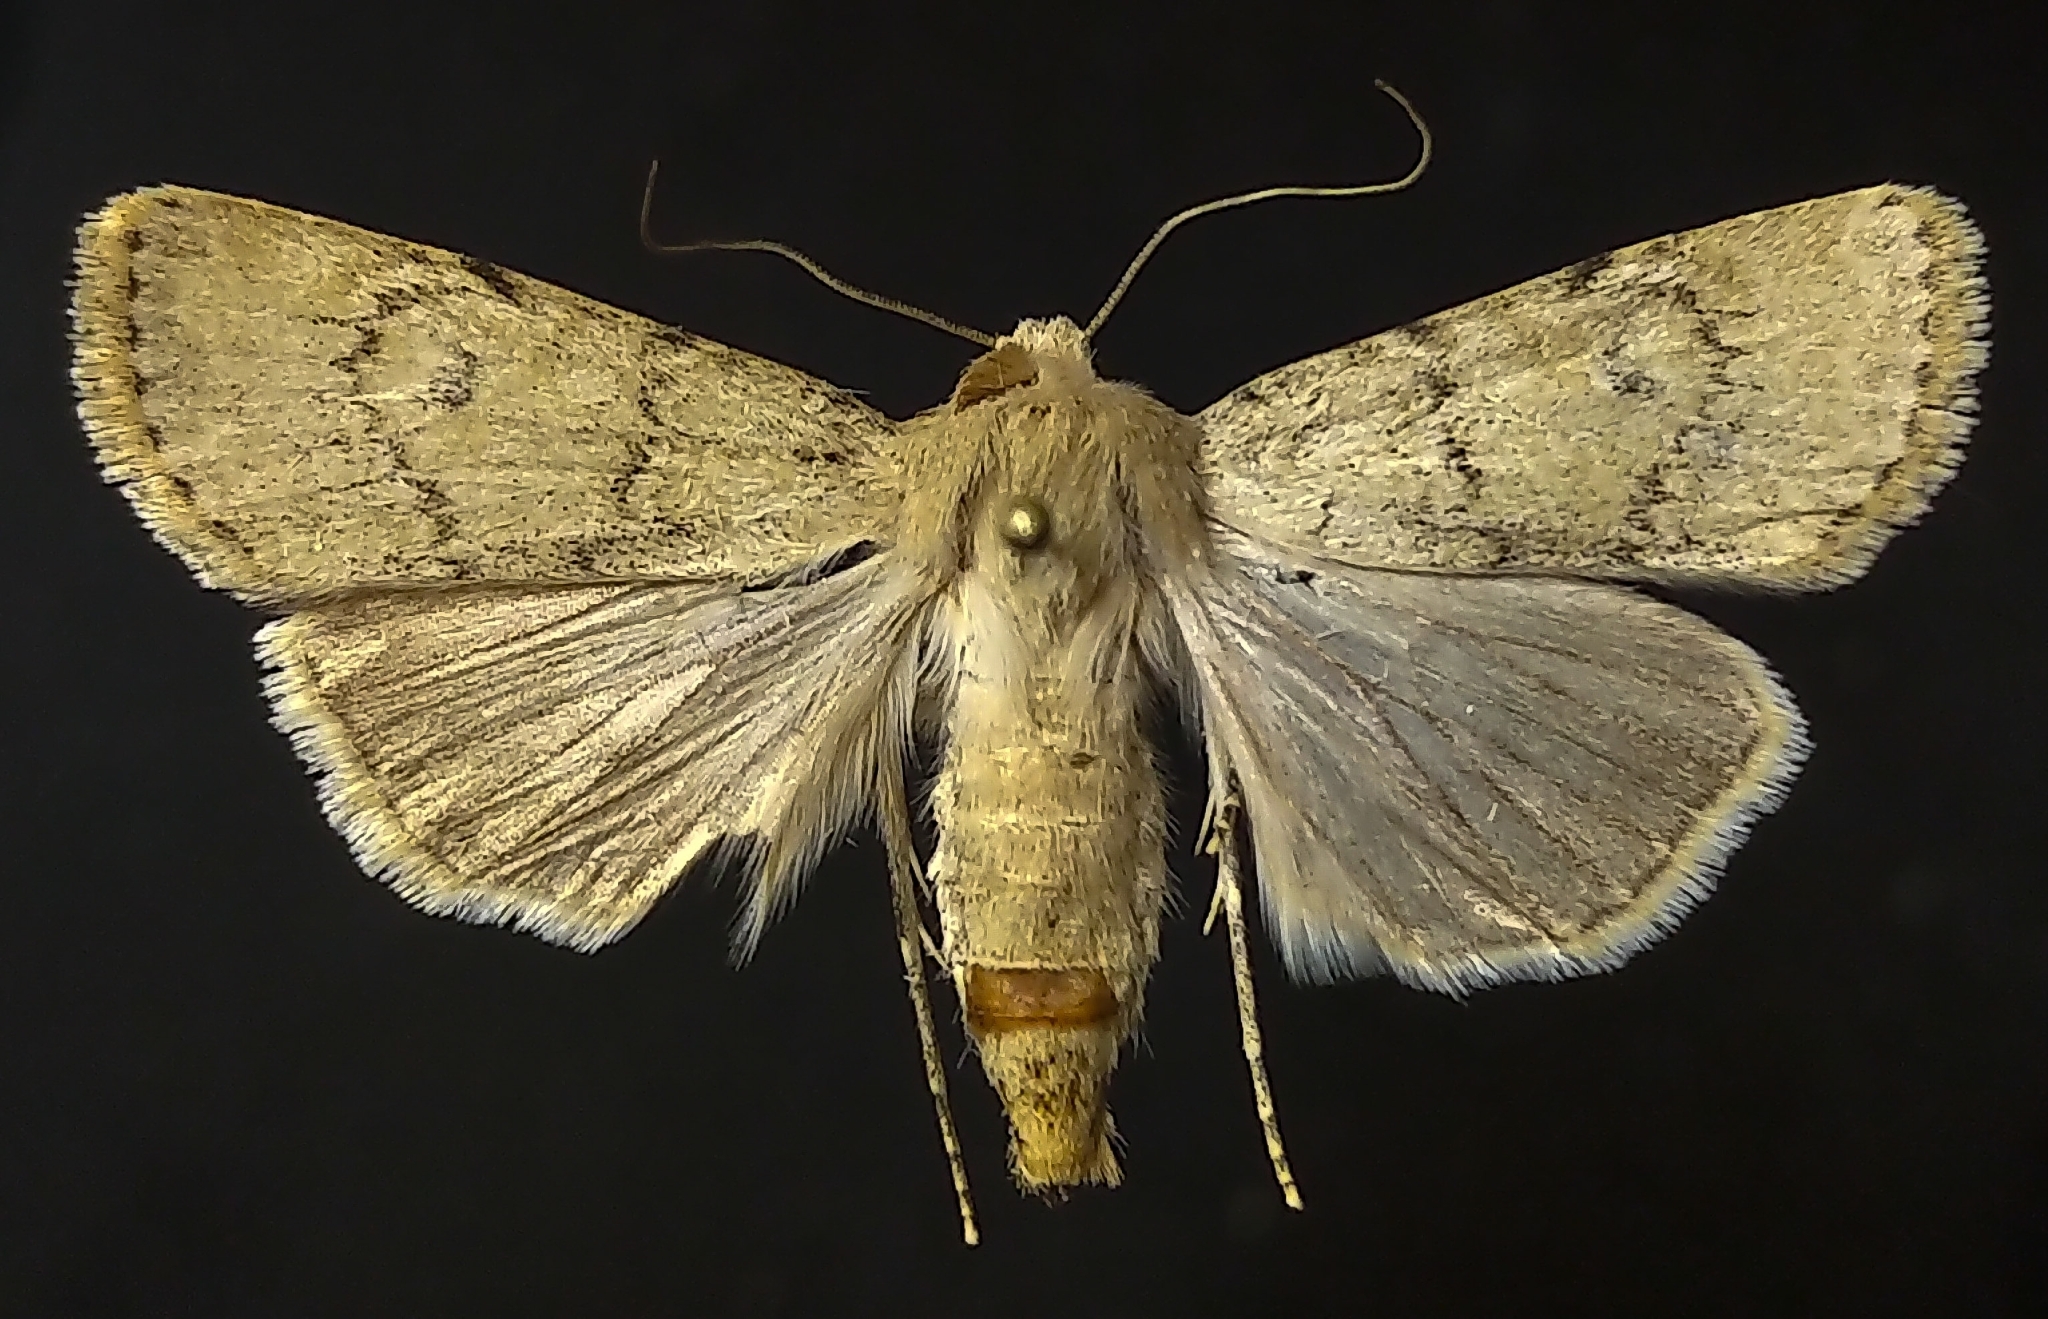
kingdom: Animalia
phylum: Arthropoda
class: Insecta
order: Lepidoptera
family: Noctuidae
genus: Euxoa
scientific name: Euxoa comosa
